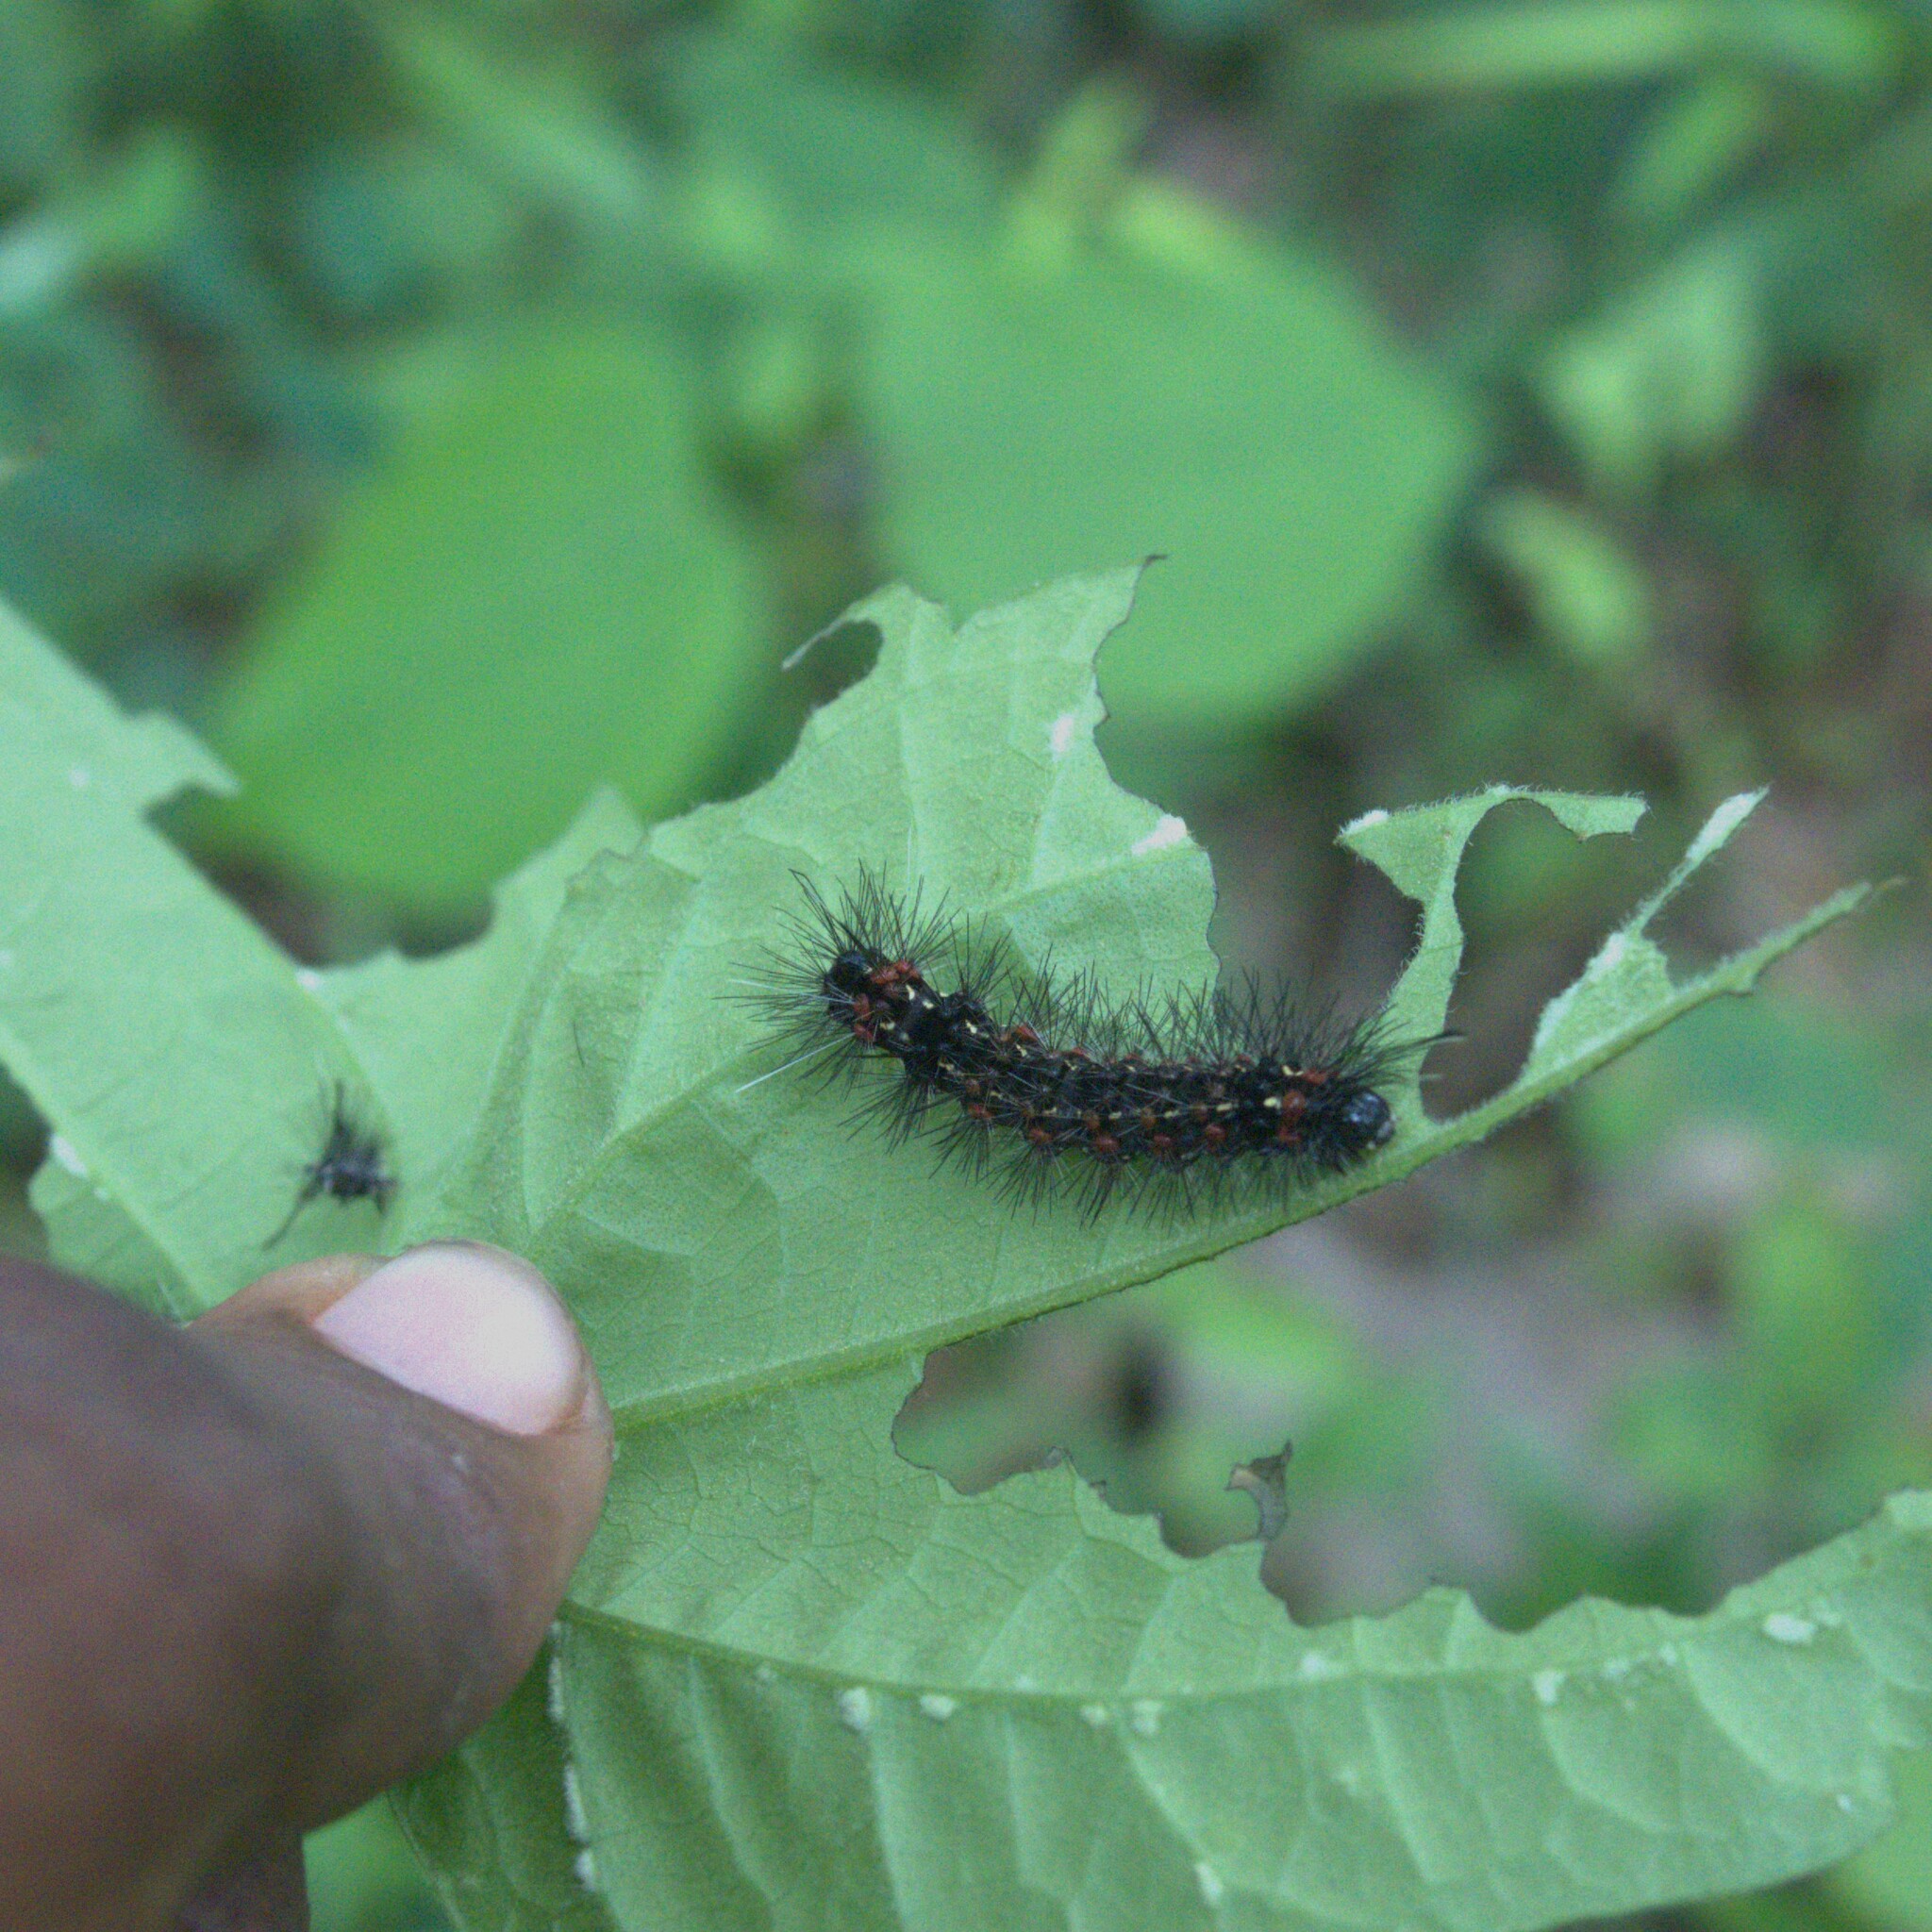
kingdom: Animalia
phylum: Arthropoda
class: Insecta
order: Lepidoptera
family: Erebidae
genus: Pareuchaetes
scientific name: Pareuchaetes pseudoinsulata
